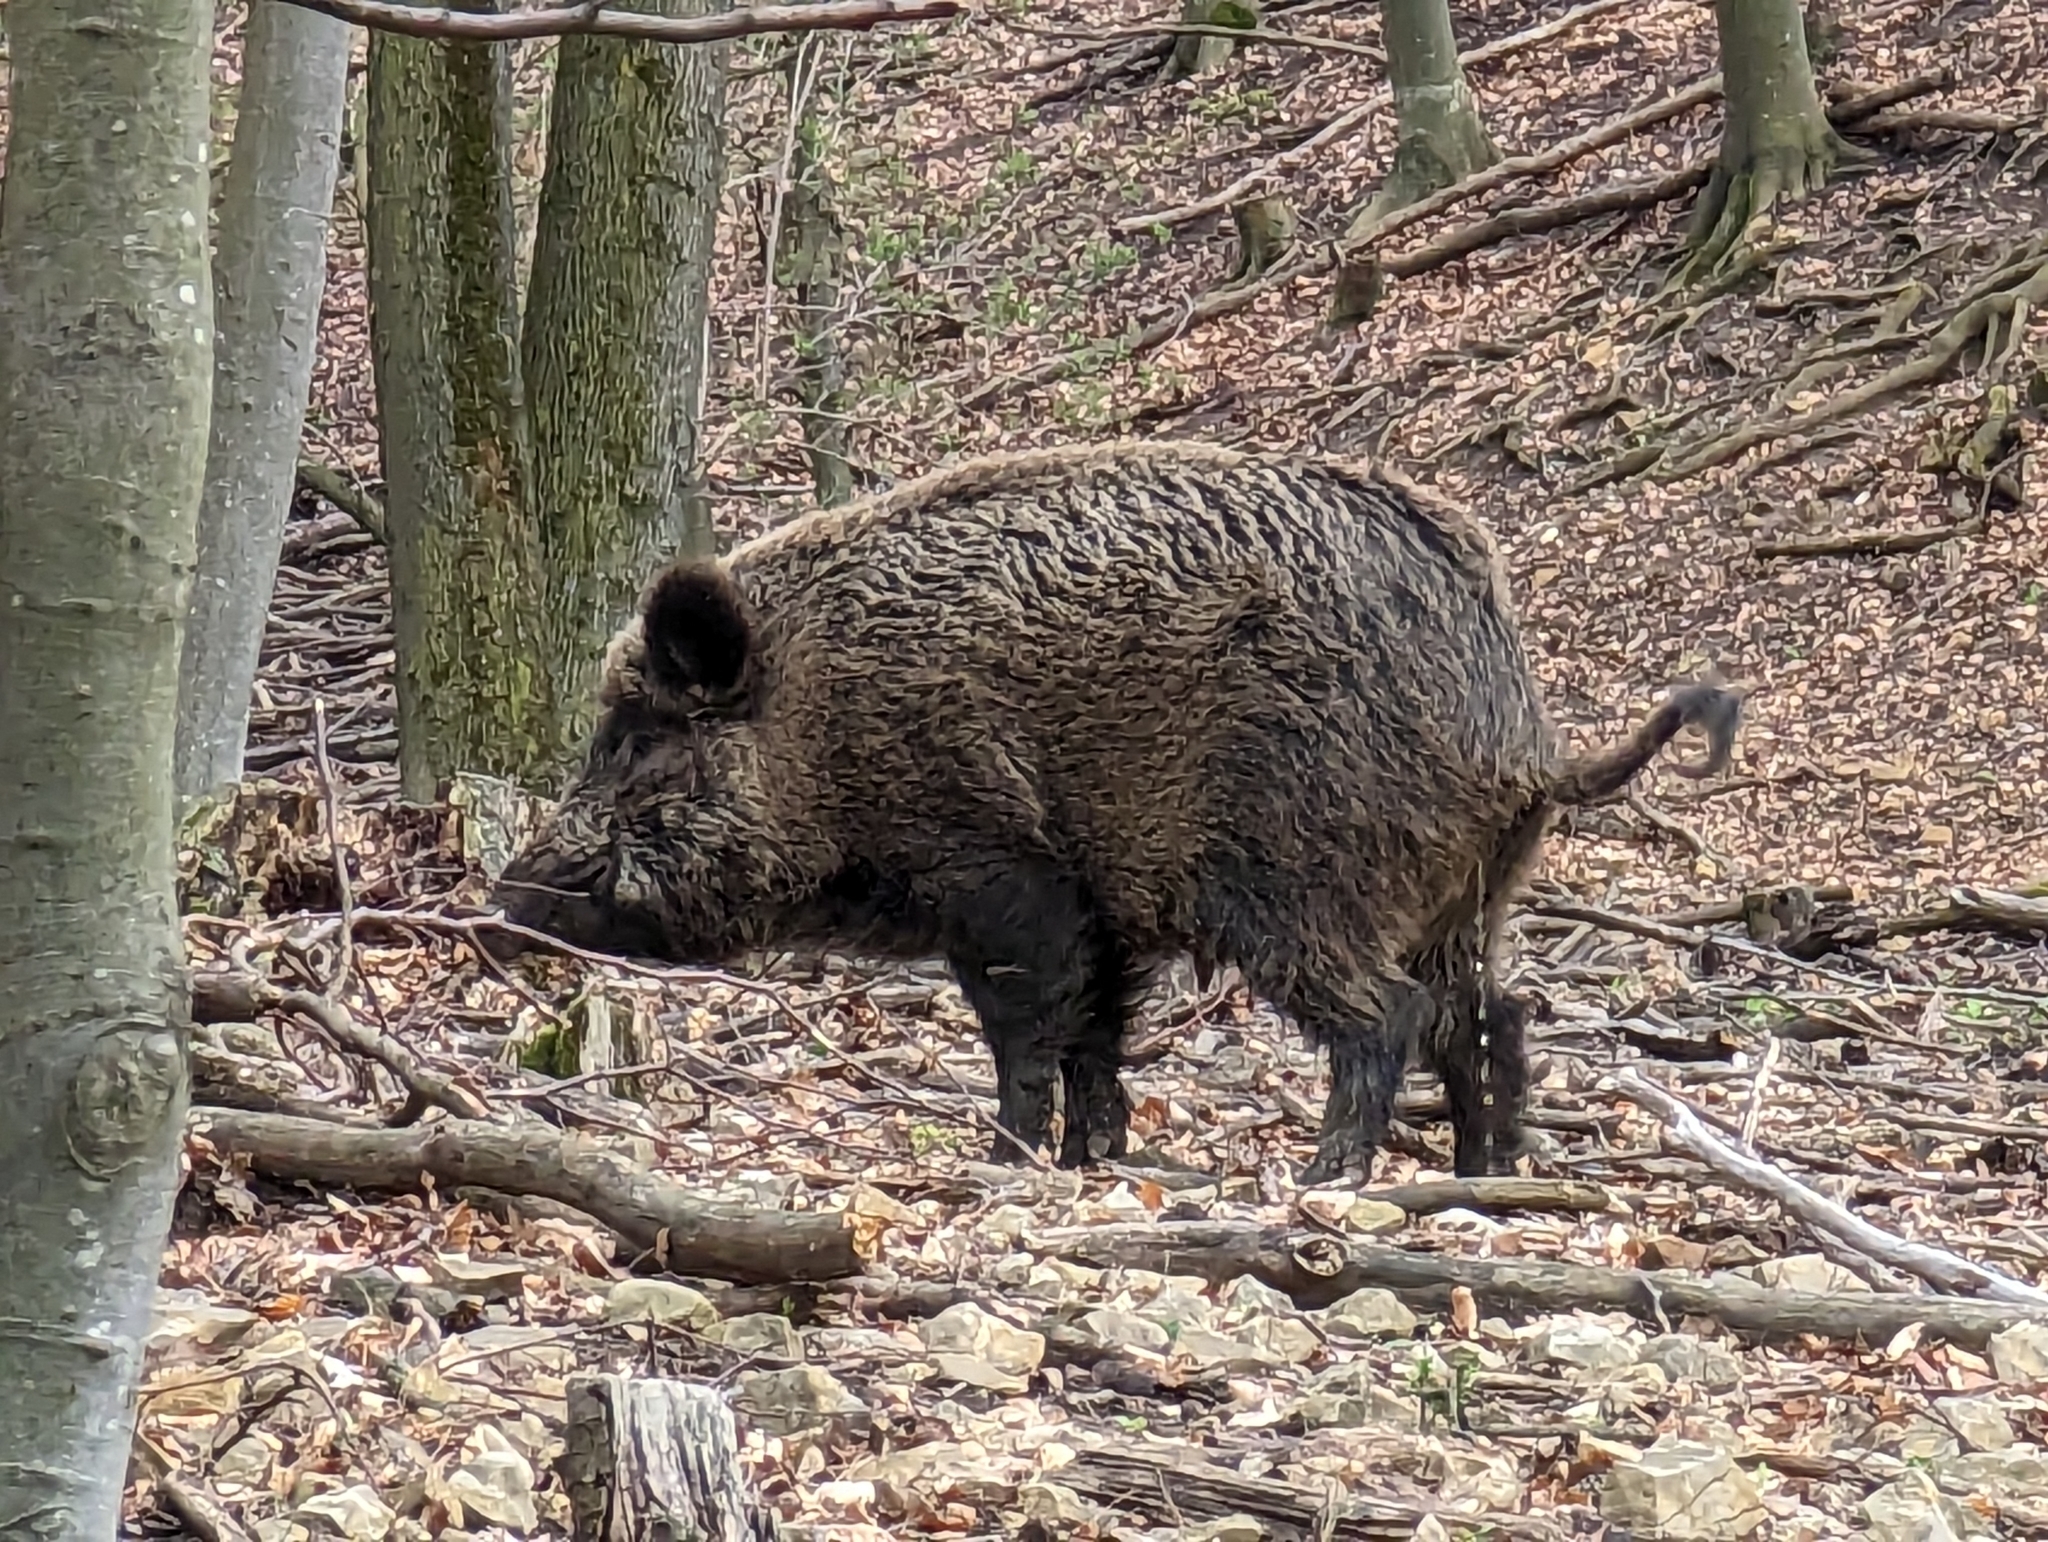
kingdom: Animalia
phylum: Chordata
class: Mammalia
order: Artiodactyla
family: Suidae
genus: Sus
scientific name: Sus scrofa
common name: Wild boar
